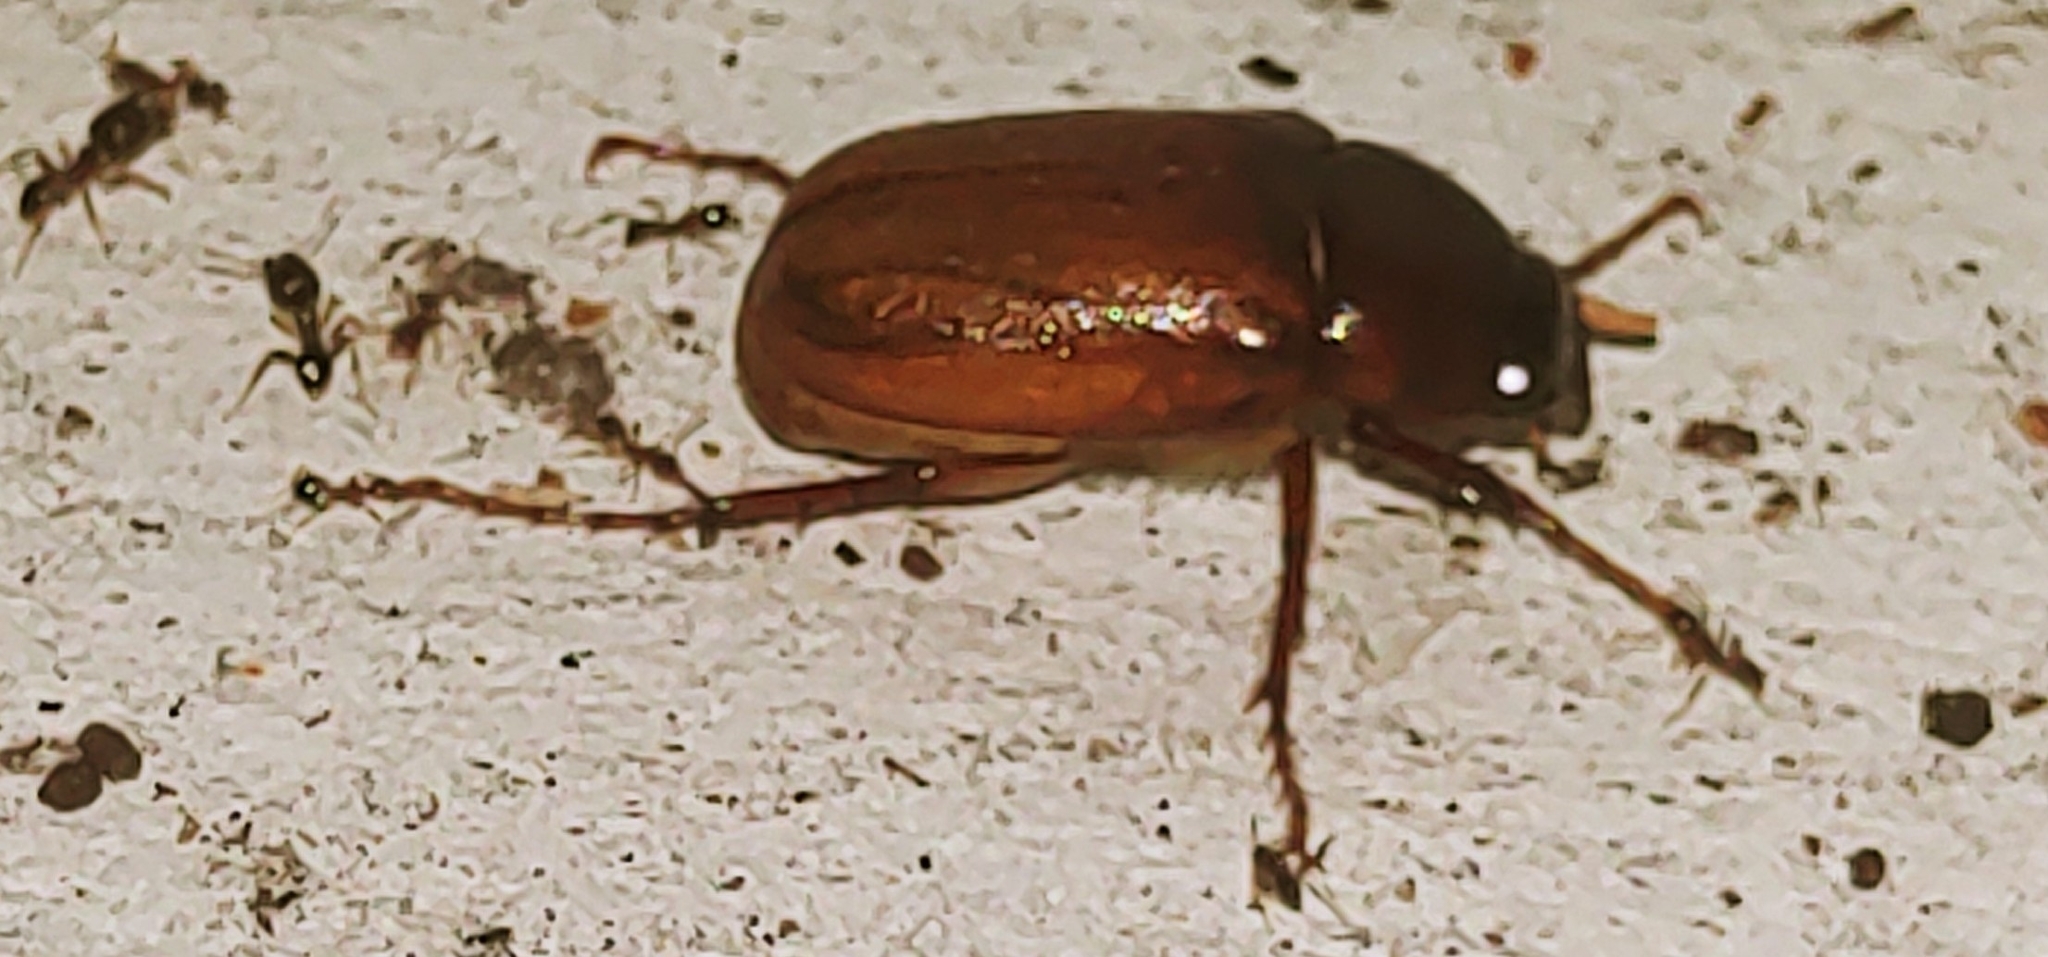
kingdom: Animalia
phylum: Arthropoda
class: Insecta
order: Hymenoptera
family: Formicidae
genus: Pheidole
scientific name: Pheidole megacephala
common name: Bigheaded ant
